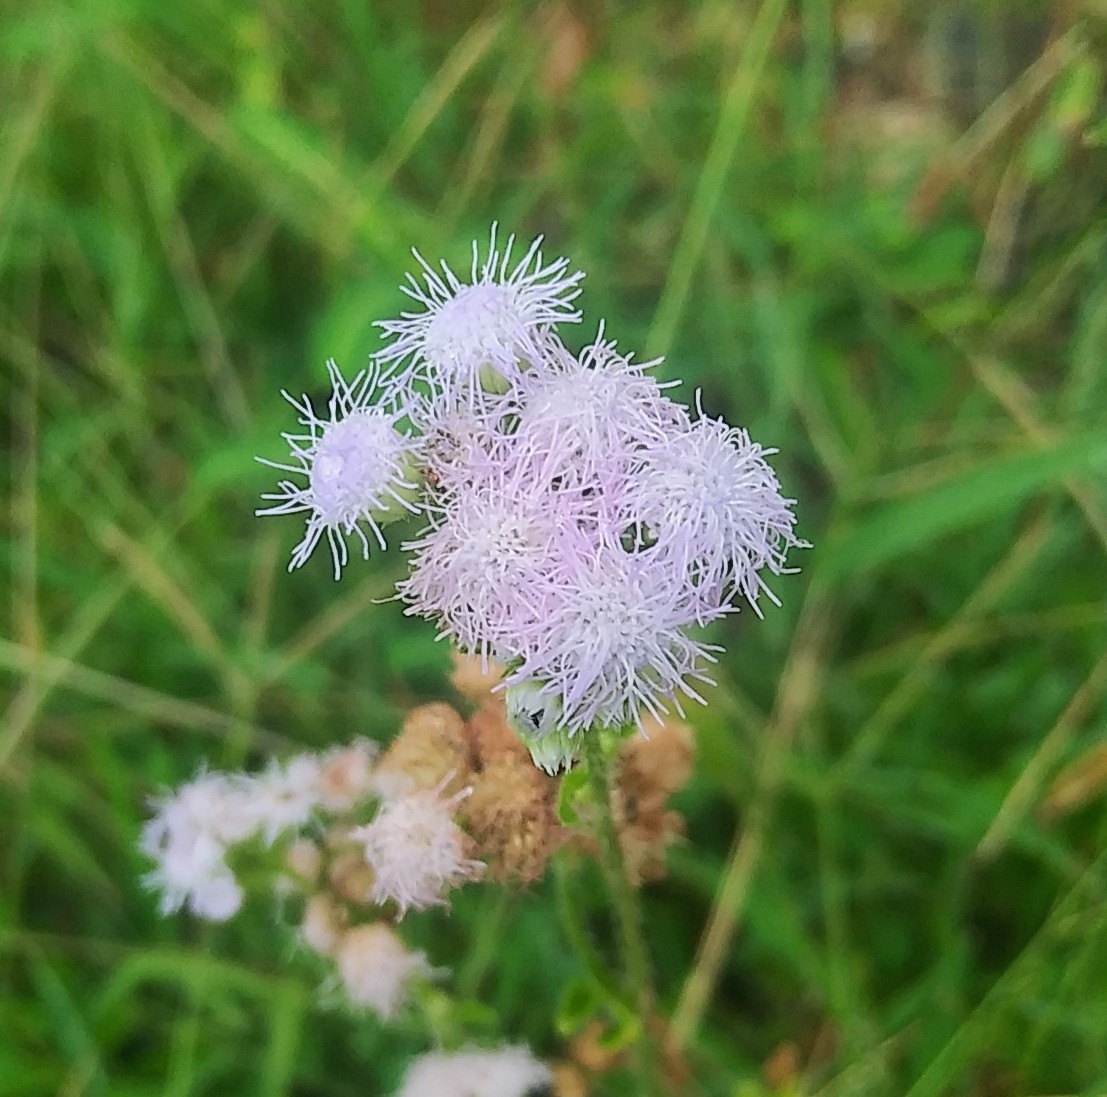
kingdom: Plantae
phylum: Tracheophyta
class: Magnoliopsida
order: Asterales
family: Asteraceae
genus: Ageratum
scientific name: Ageratum houstonianum
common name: Bluemink
